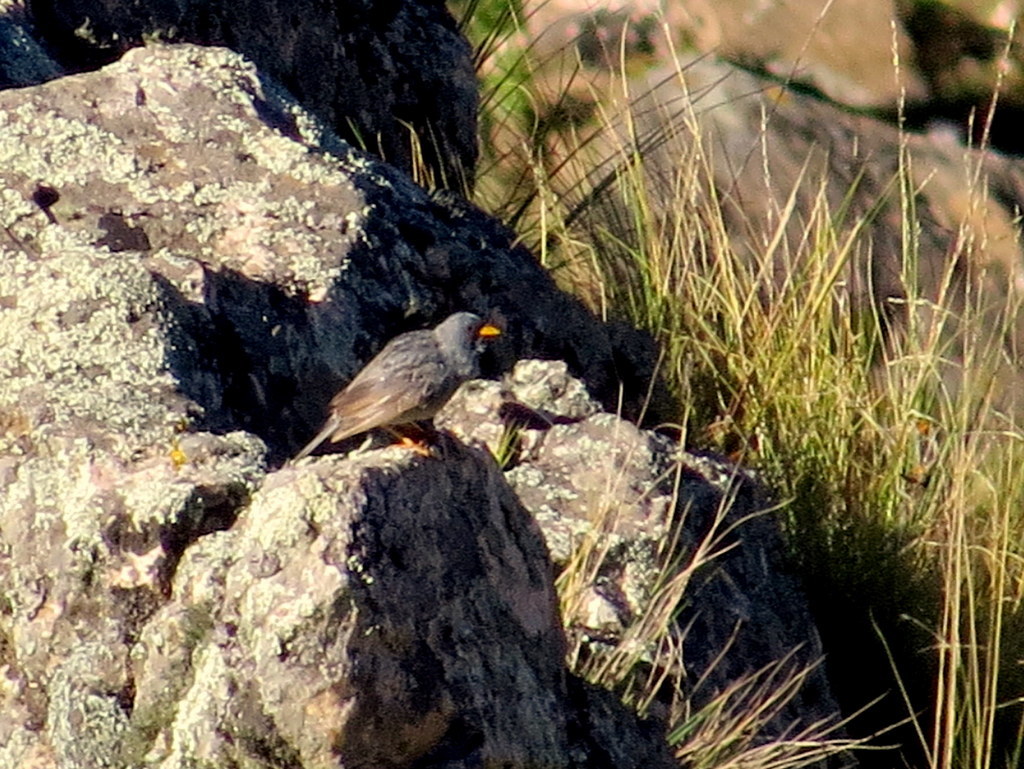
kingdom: Animalia
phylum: Chordata
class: Aves
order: Passeriformes
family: Thraupidae
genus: Porphyrospiza
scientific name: Porphyrospiza alaudina
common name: Band-tailed sierra finch
